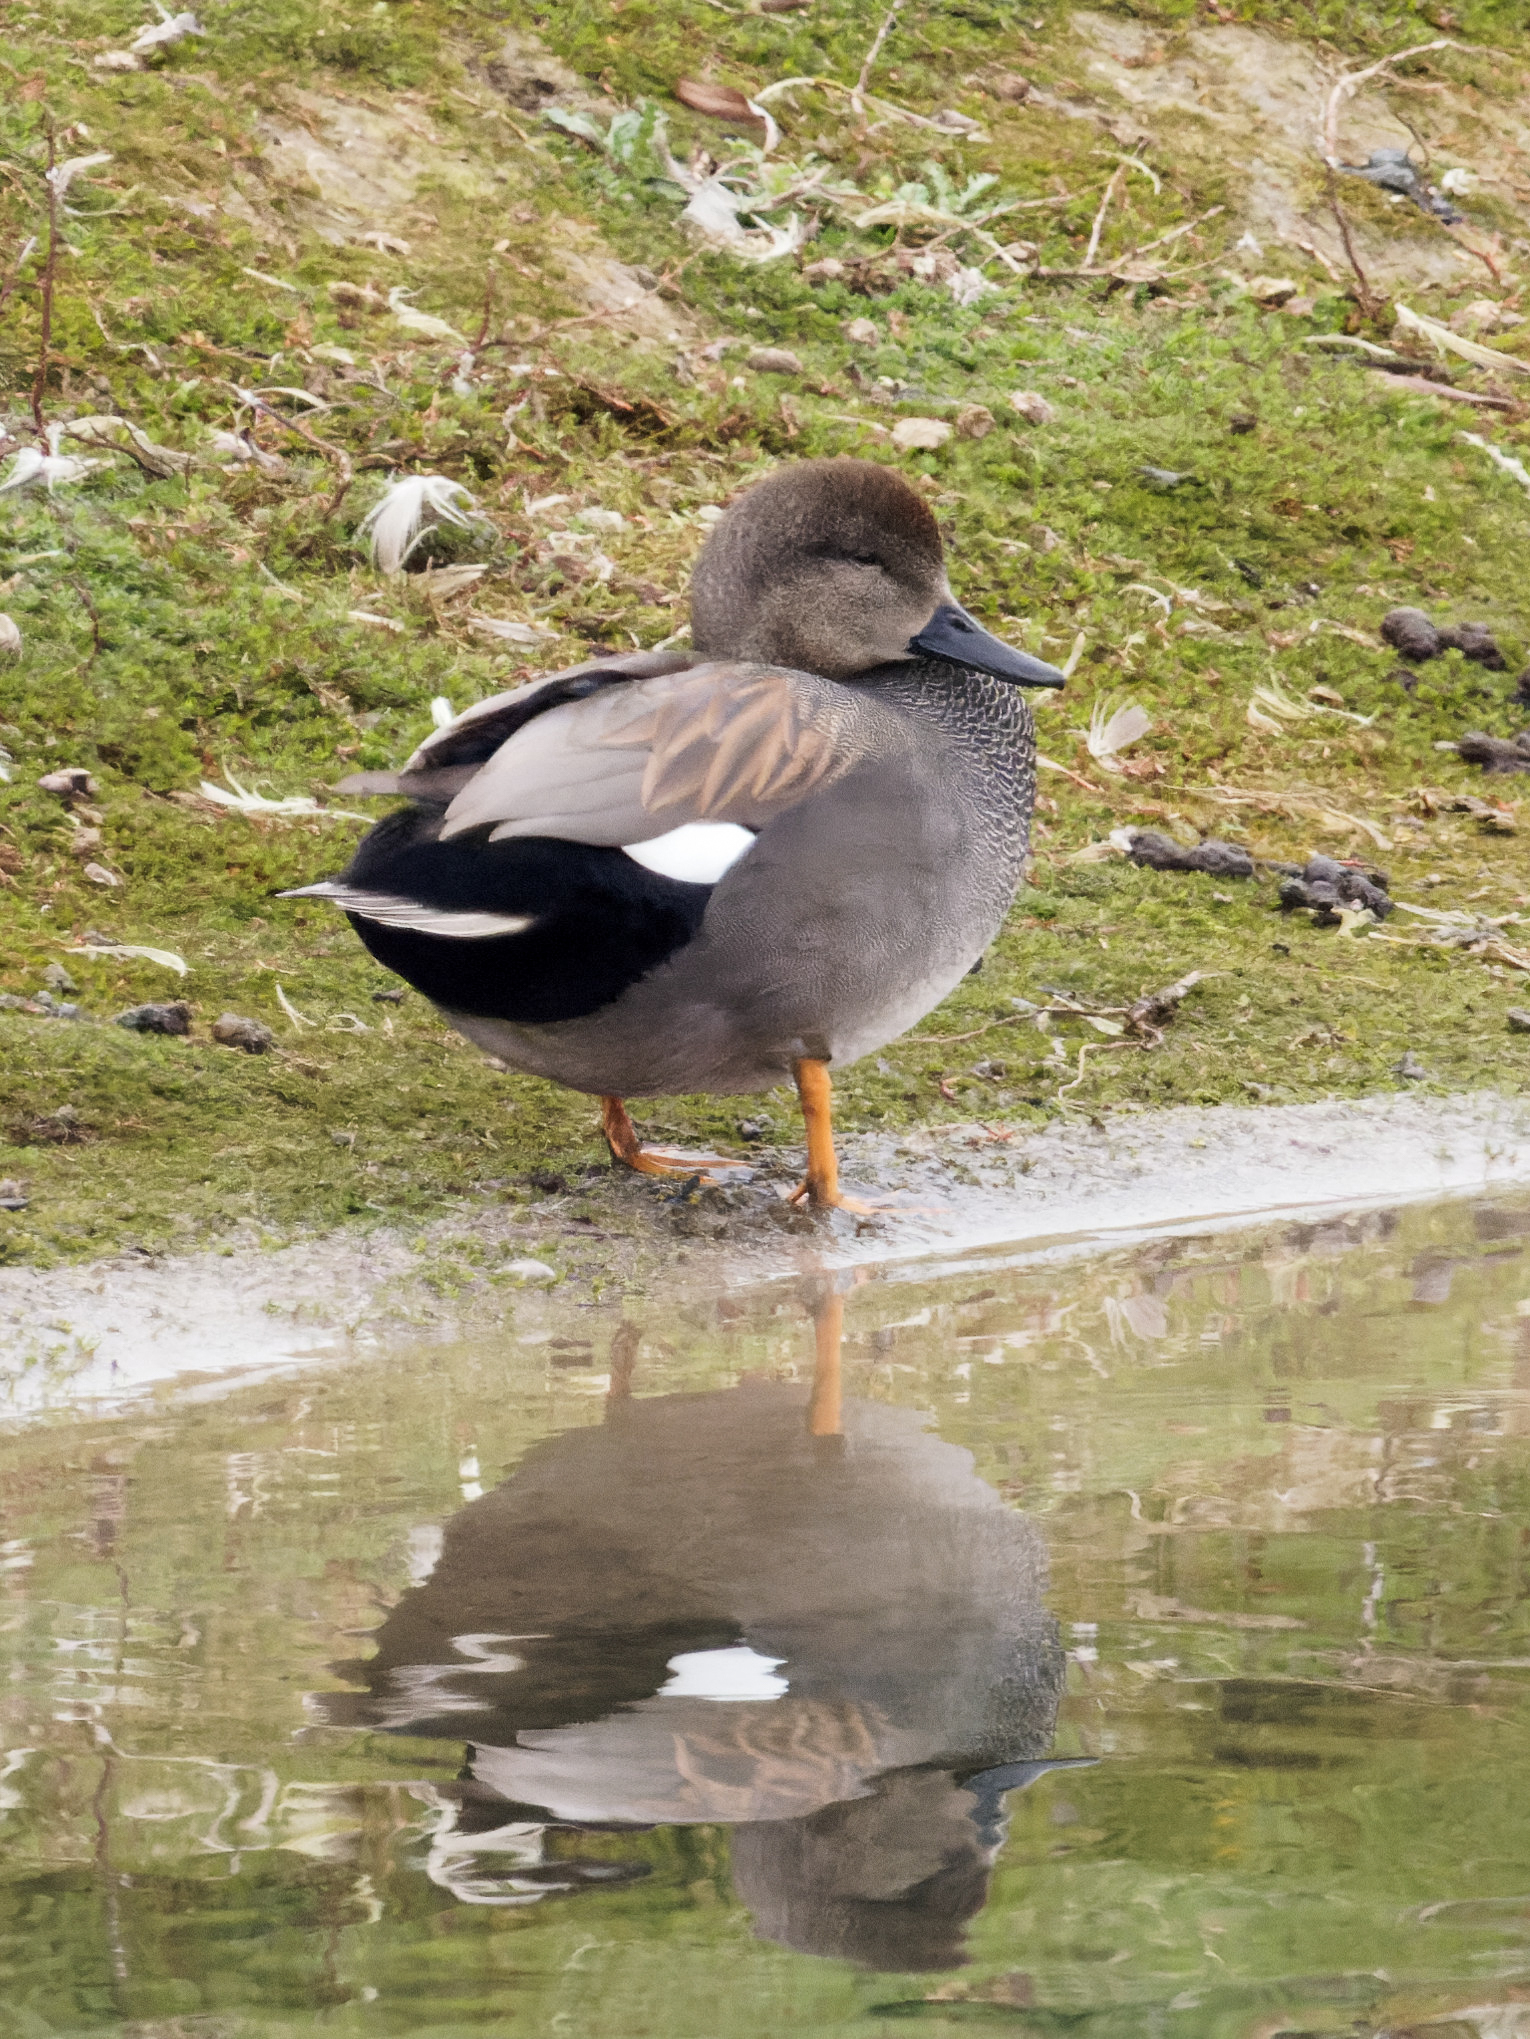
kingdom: Animalia
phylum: Chordata
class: Aves
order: Anseriformes
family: Anatidae
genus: Mareca
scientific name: Mareca strepera
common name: Gadwall
